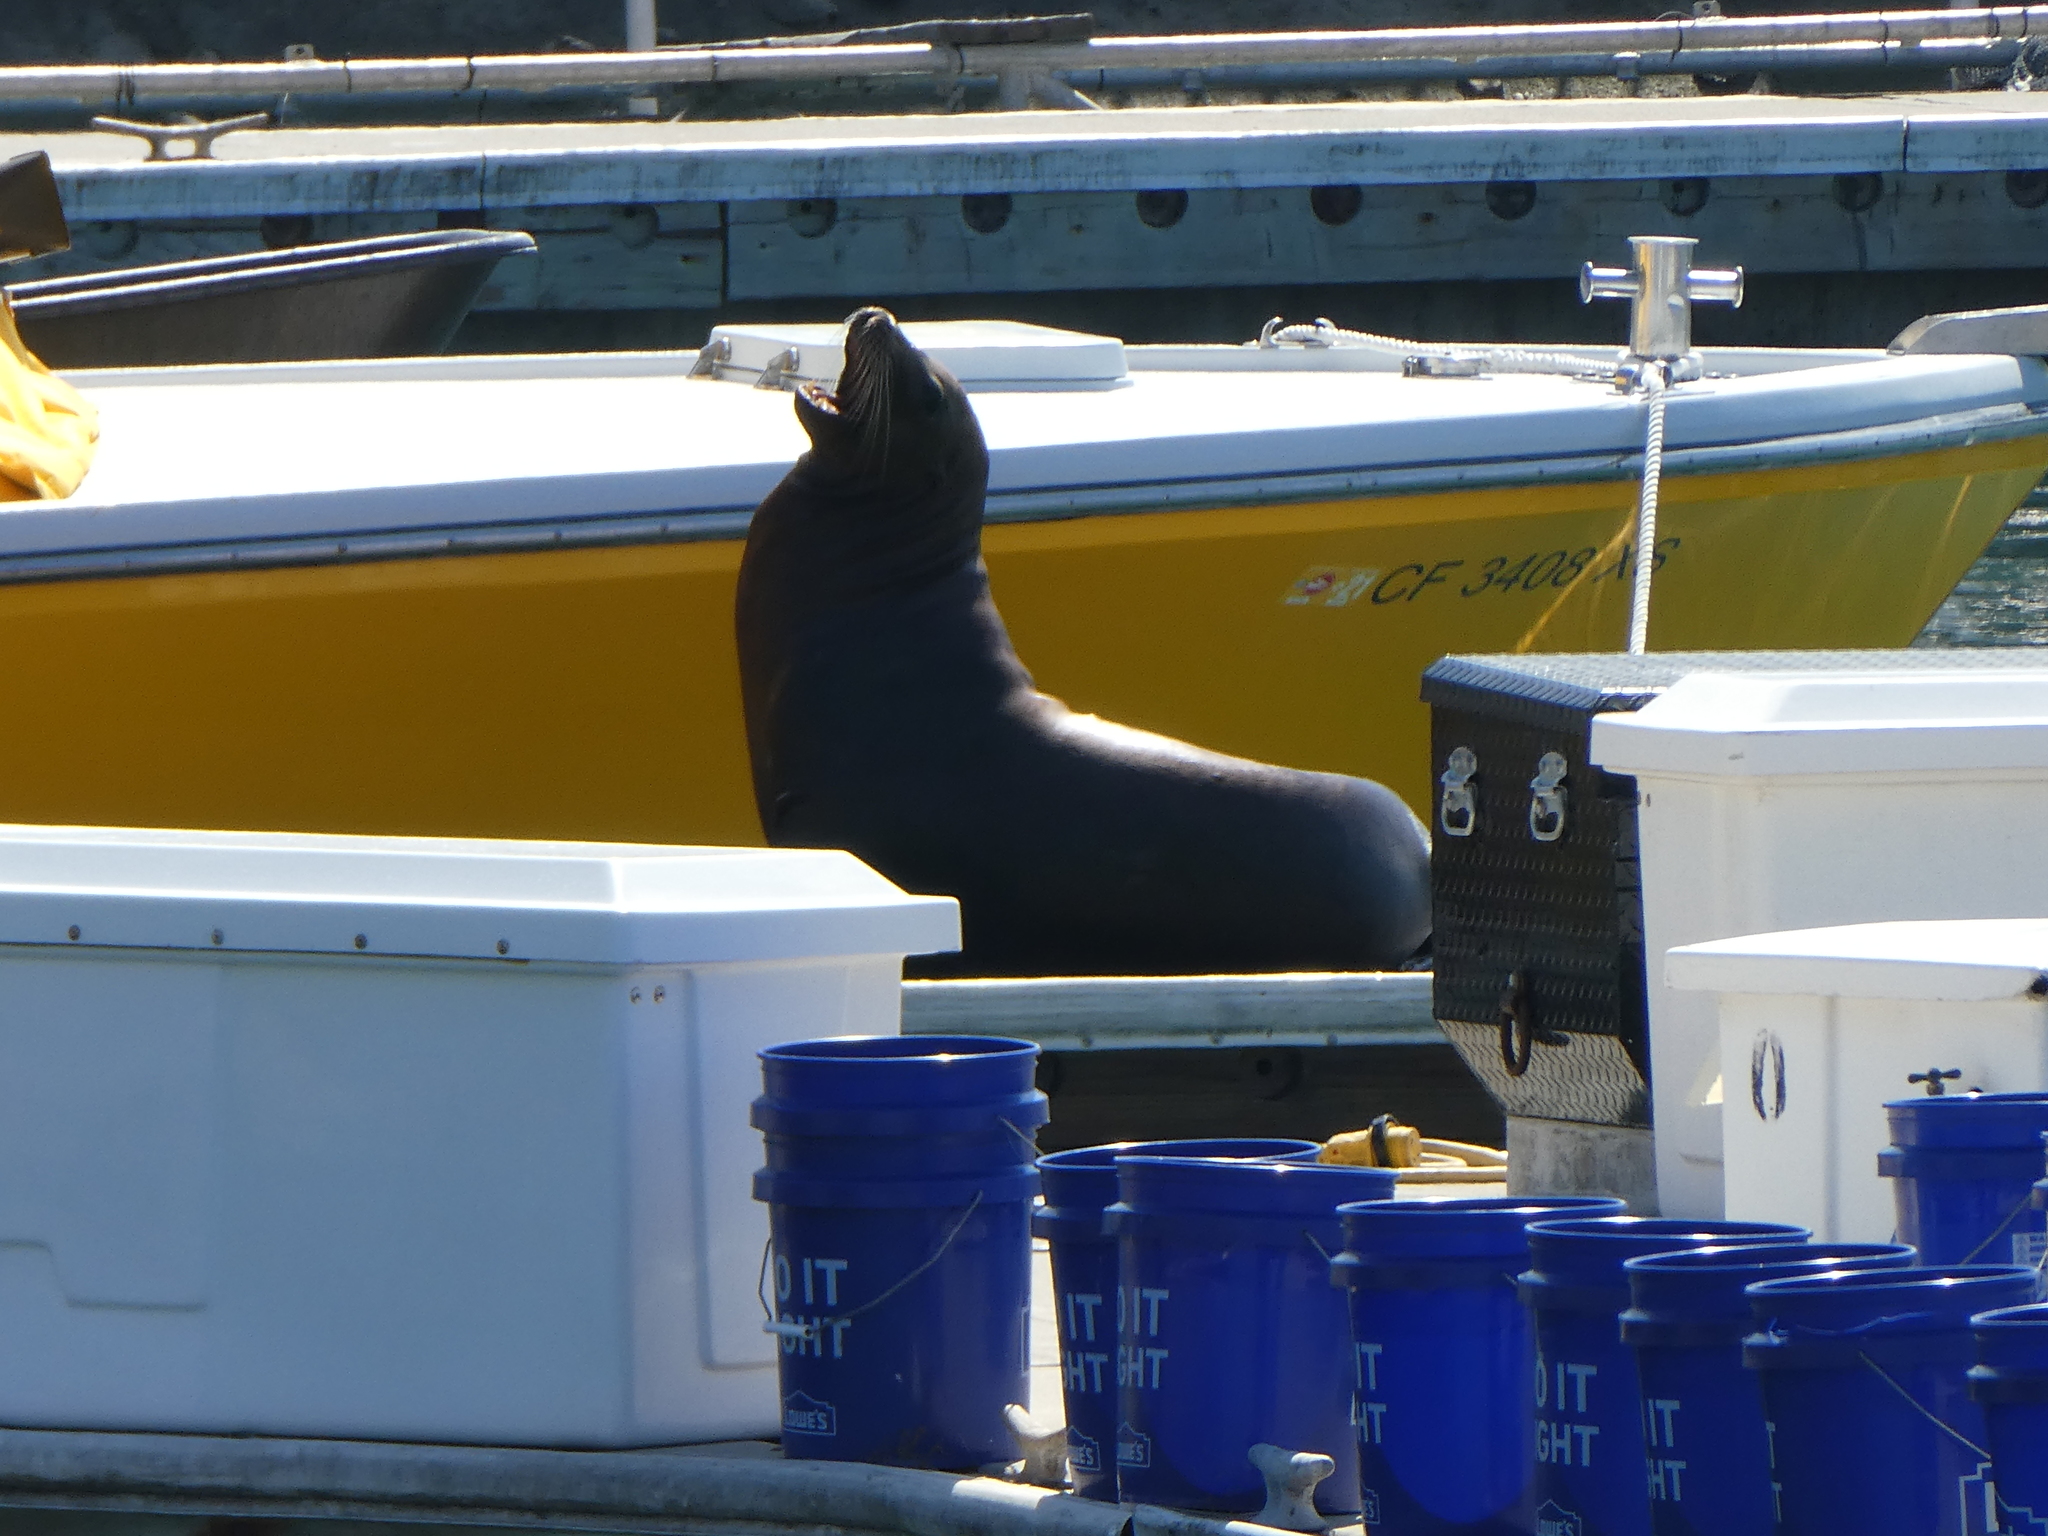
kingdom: Animalia
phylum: Chordata
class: Mammalia
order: Carnivora
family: Otariidae
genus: Zalophus
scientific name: Zalophus californianus
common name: California sea lion
